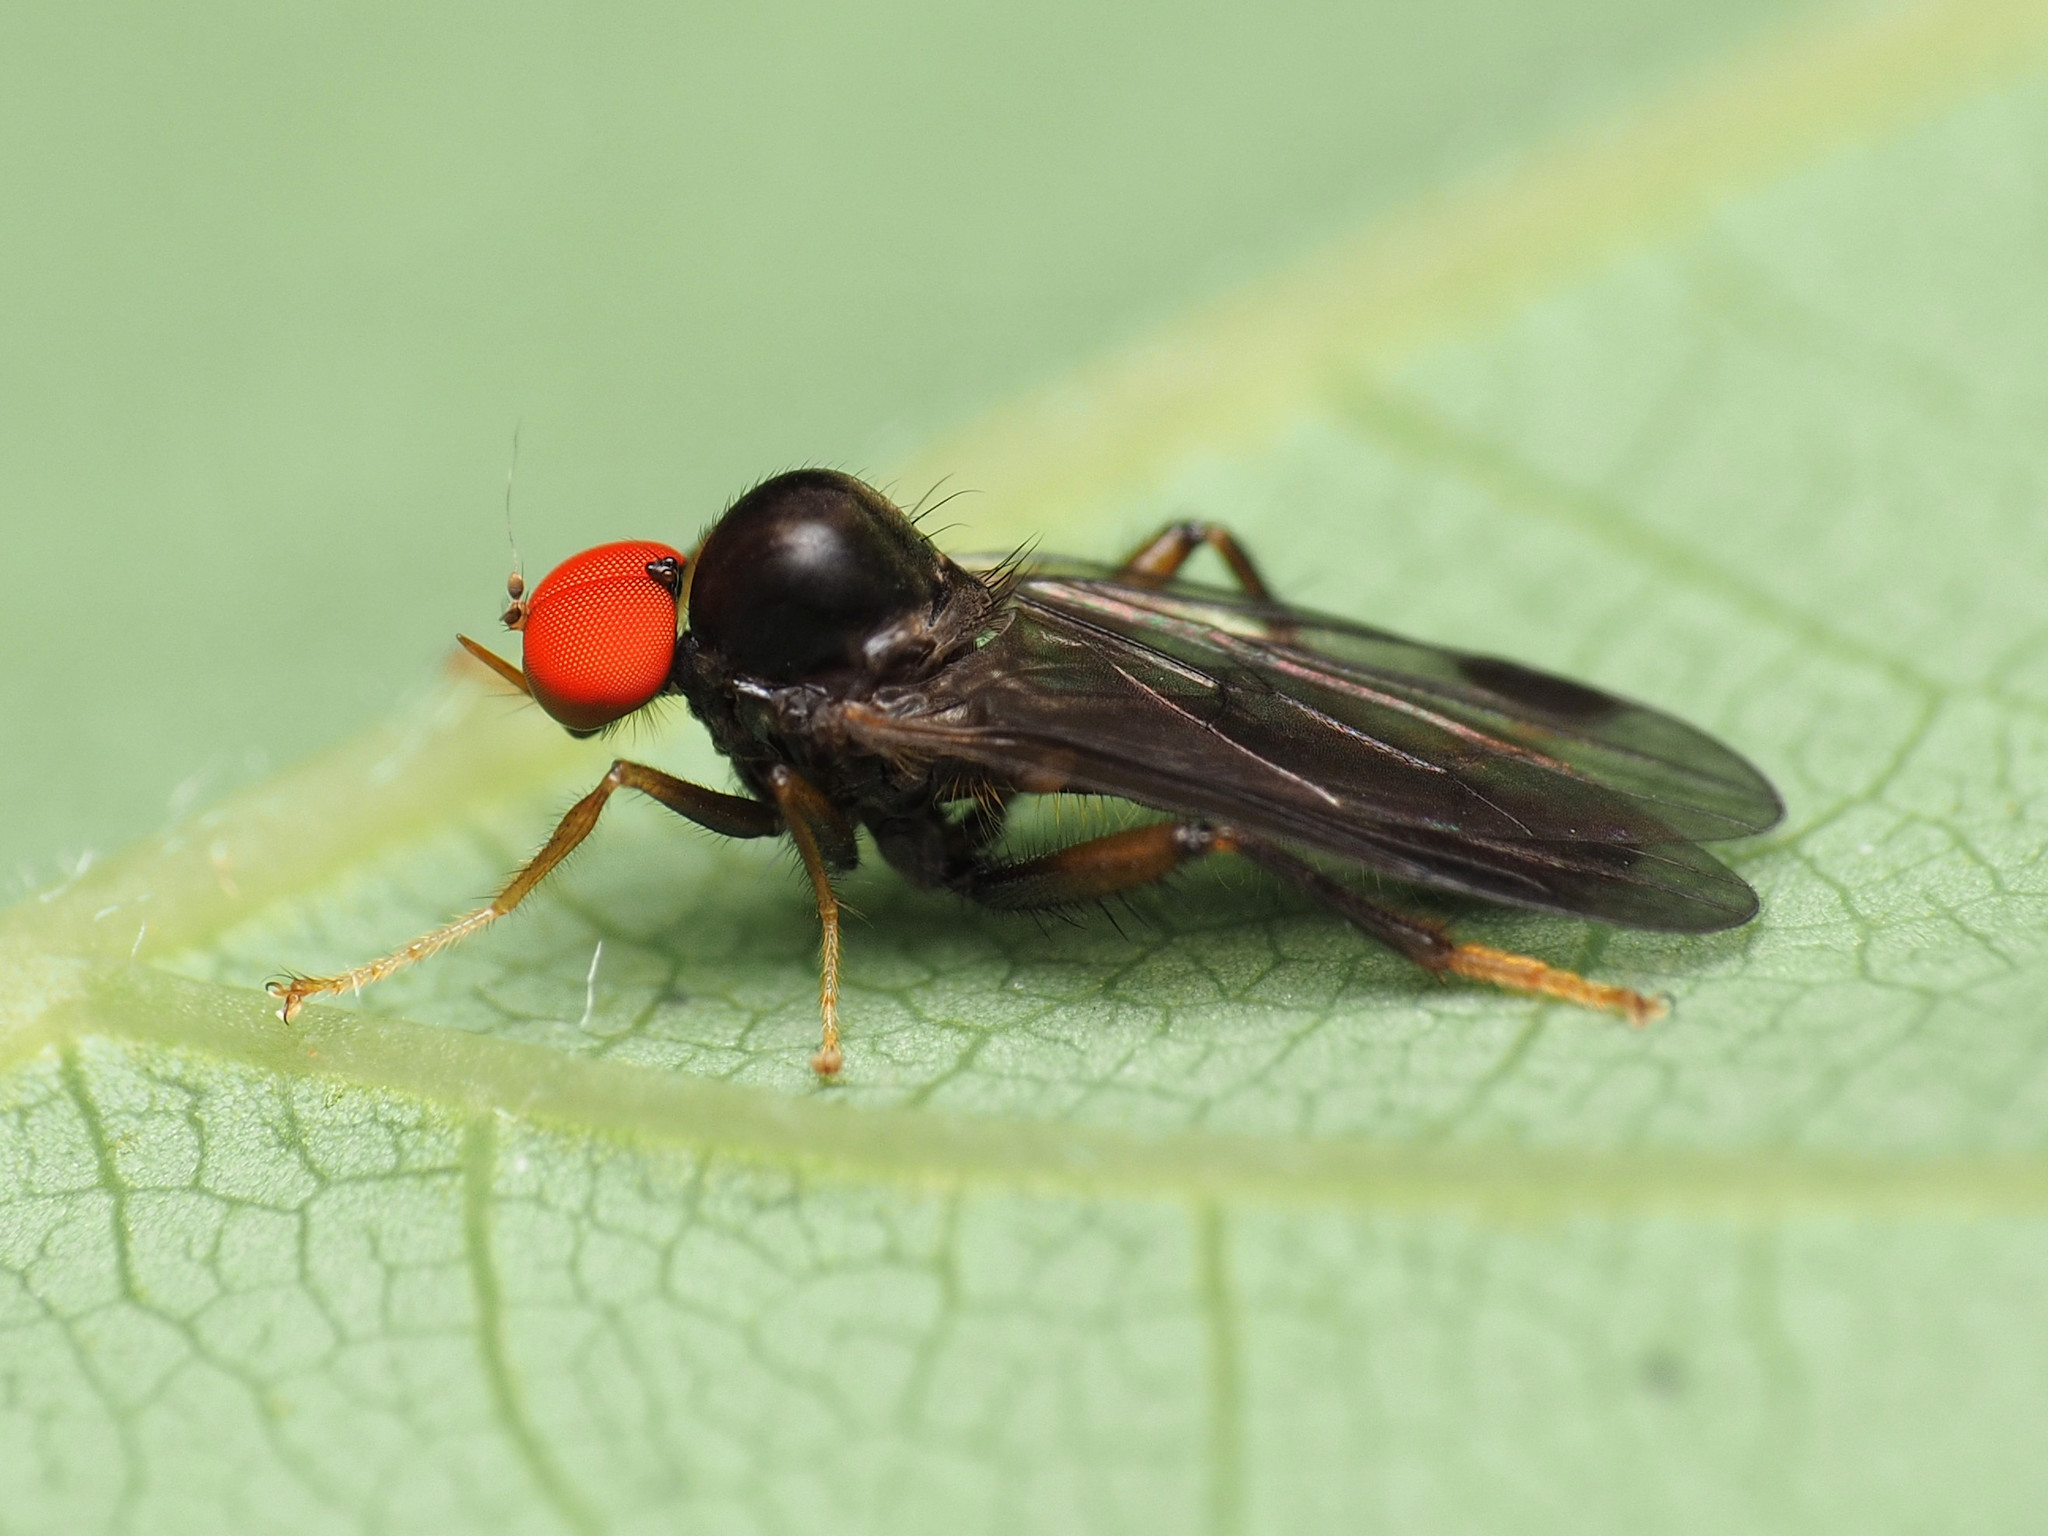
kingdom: Animalia
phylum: Arthropoda
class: Insecta
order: Diptera
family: Hybotidae
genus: Syneches
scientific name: Syneches thoracicus
